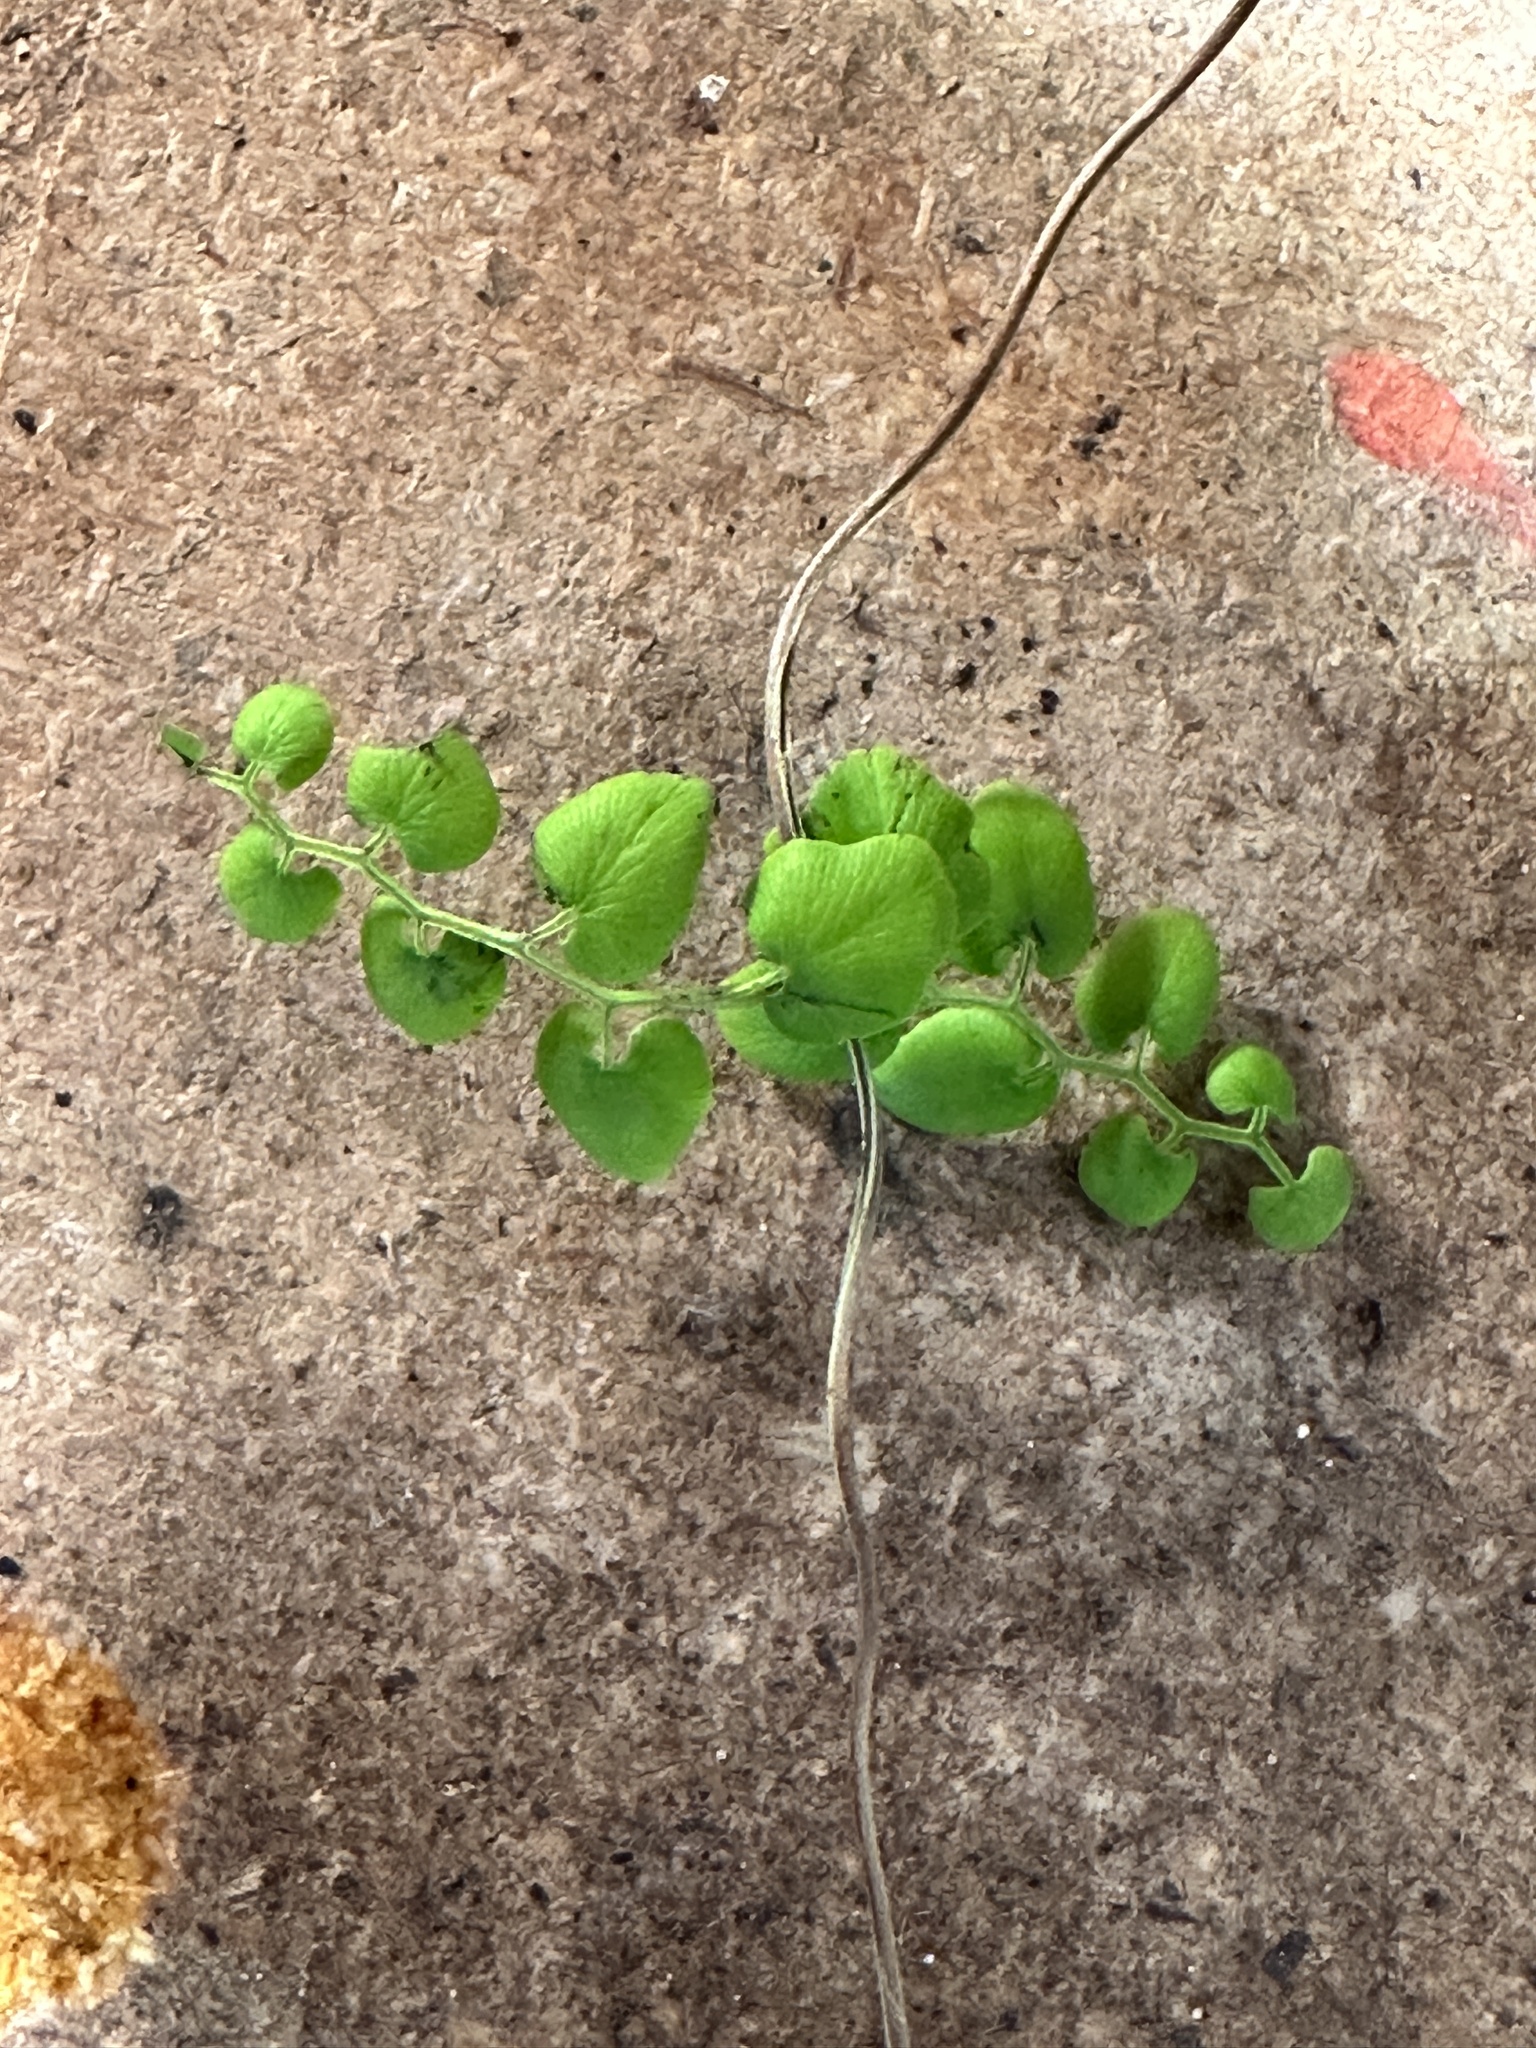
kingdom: Plantae
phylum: Tracheophyta
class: Polypodiopsida
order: Schizaeales
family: Lygodiaceae
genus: Lygodium
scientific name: Lygodium microphyllum
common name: Small-leaf climbing fern
